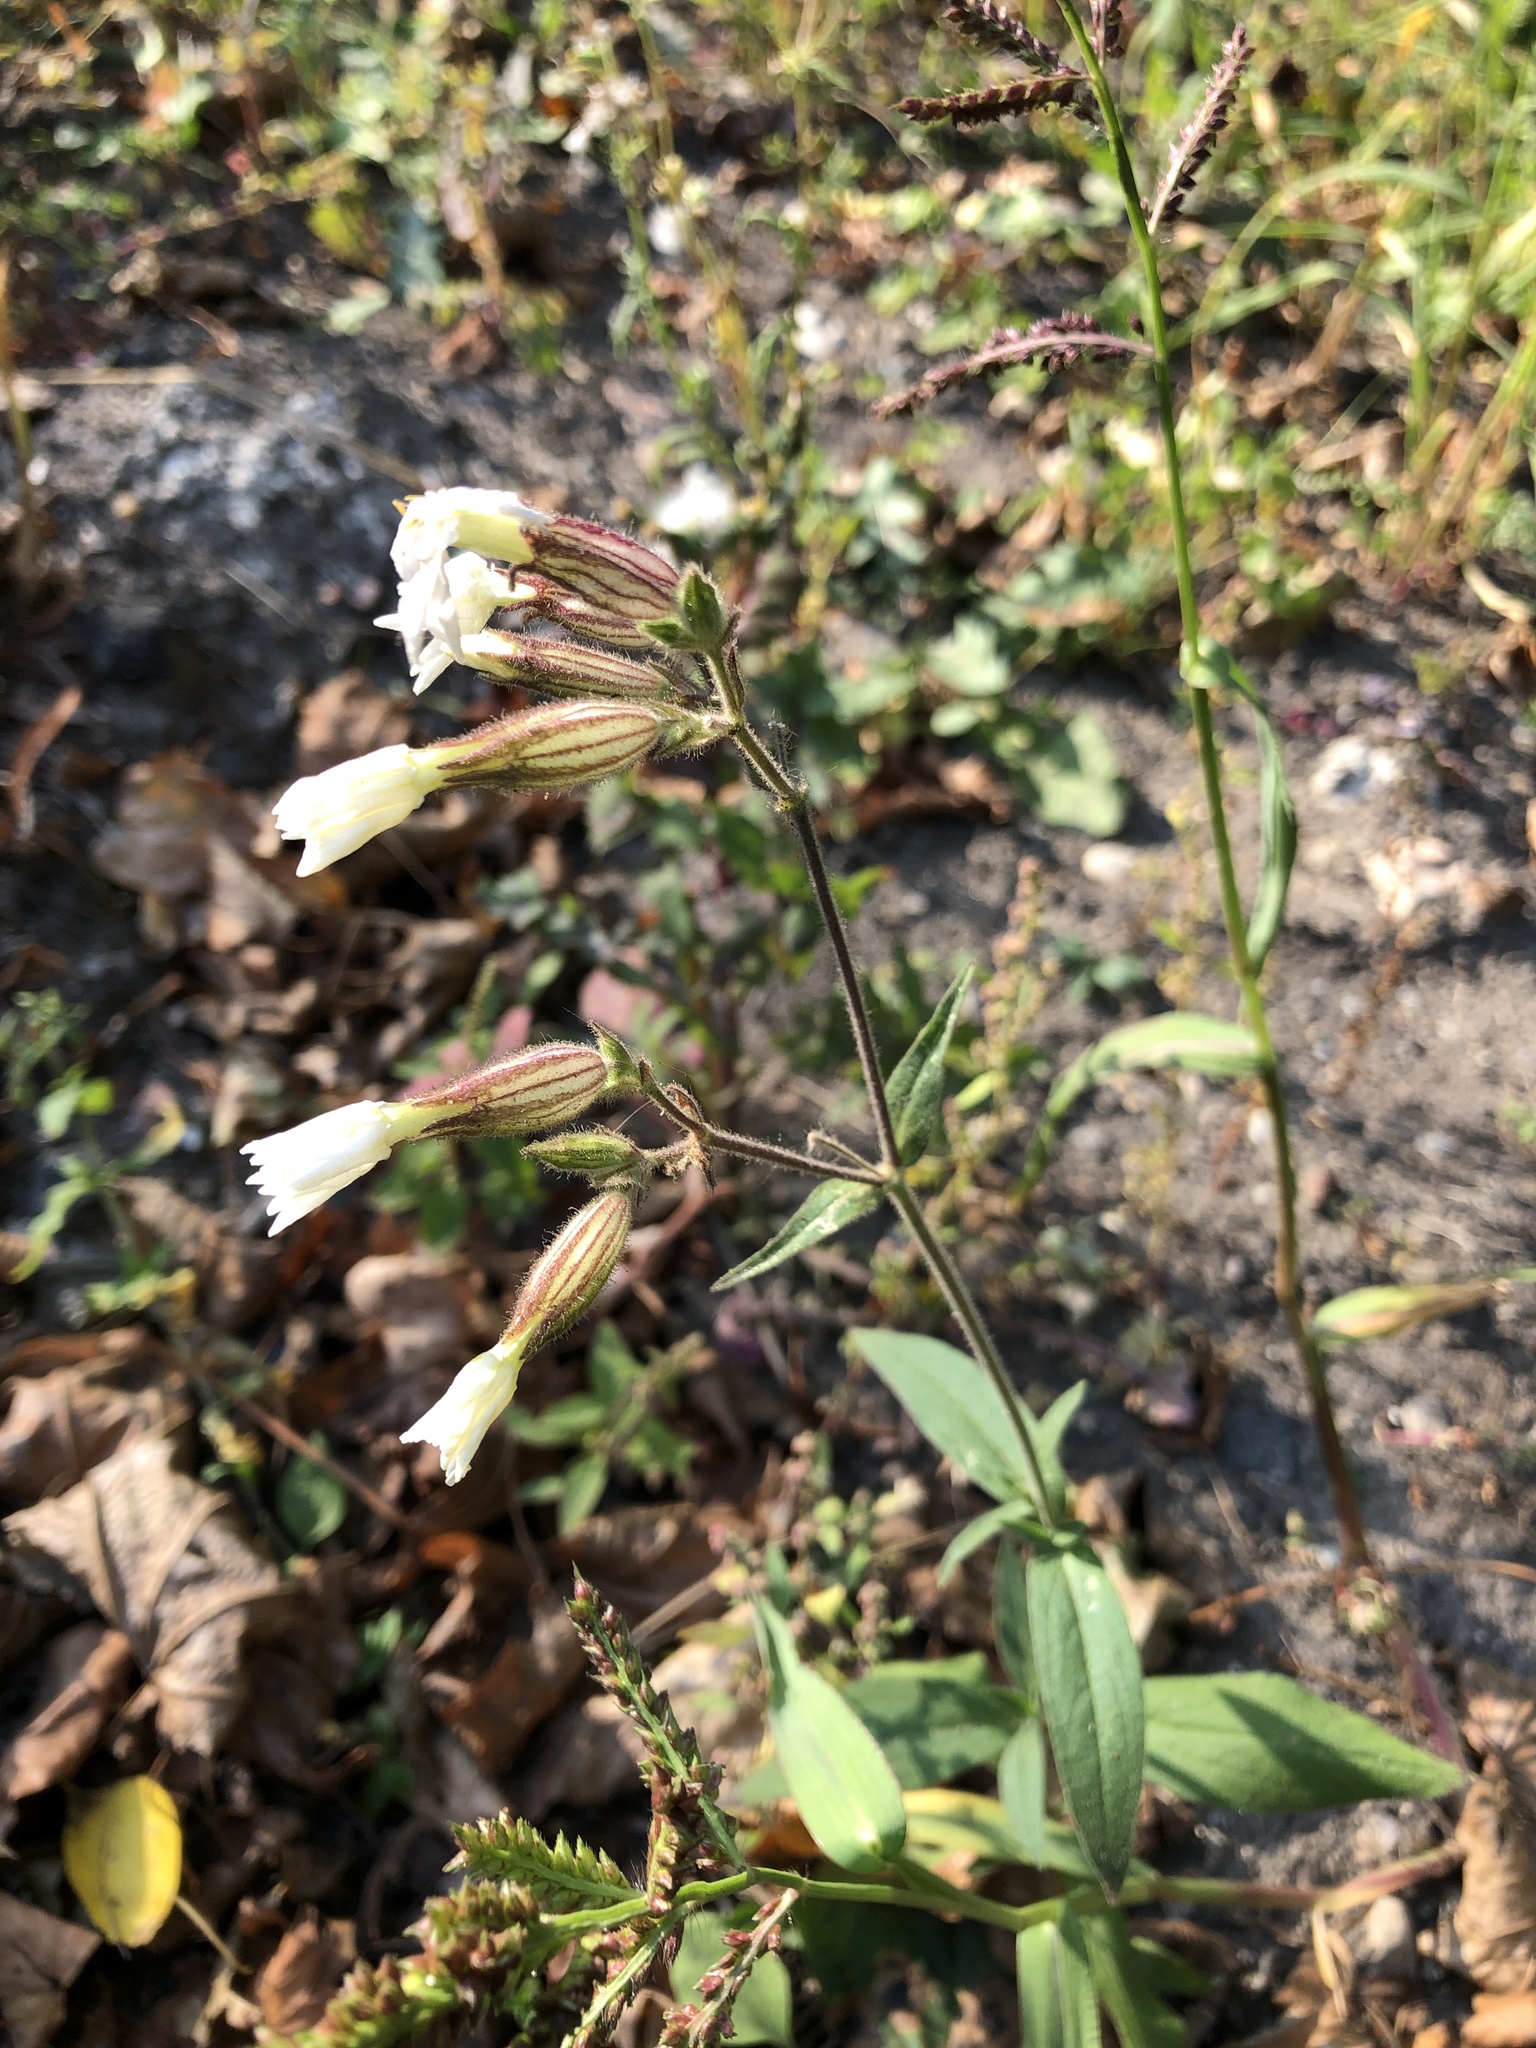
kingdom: Plantae
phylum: Tracheophyta
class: Magnoliopsida
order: Caryophyllales
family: Caryophyllaceae
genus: Silene
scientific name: Silene latifolia
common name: White campion
